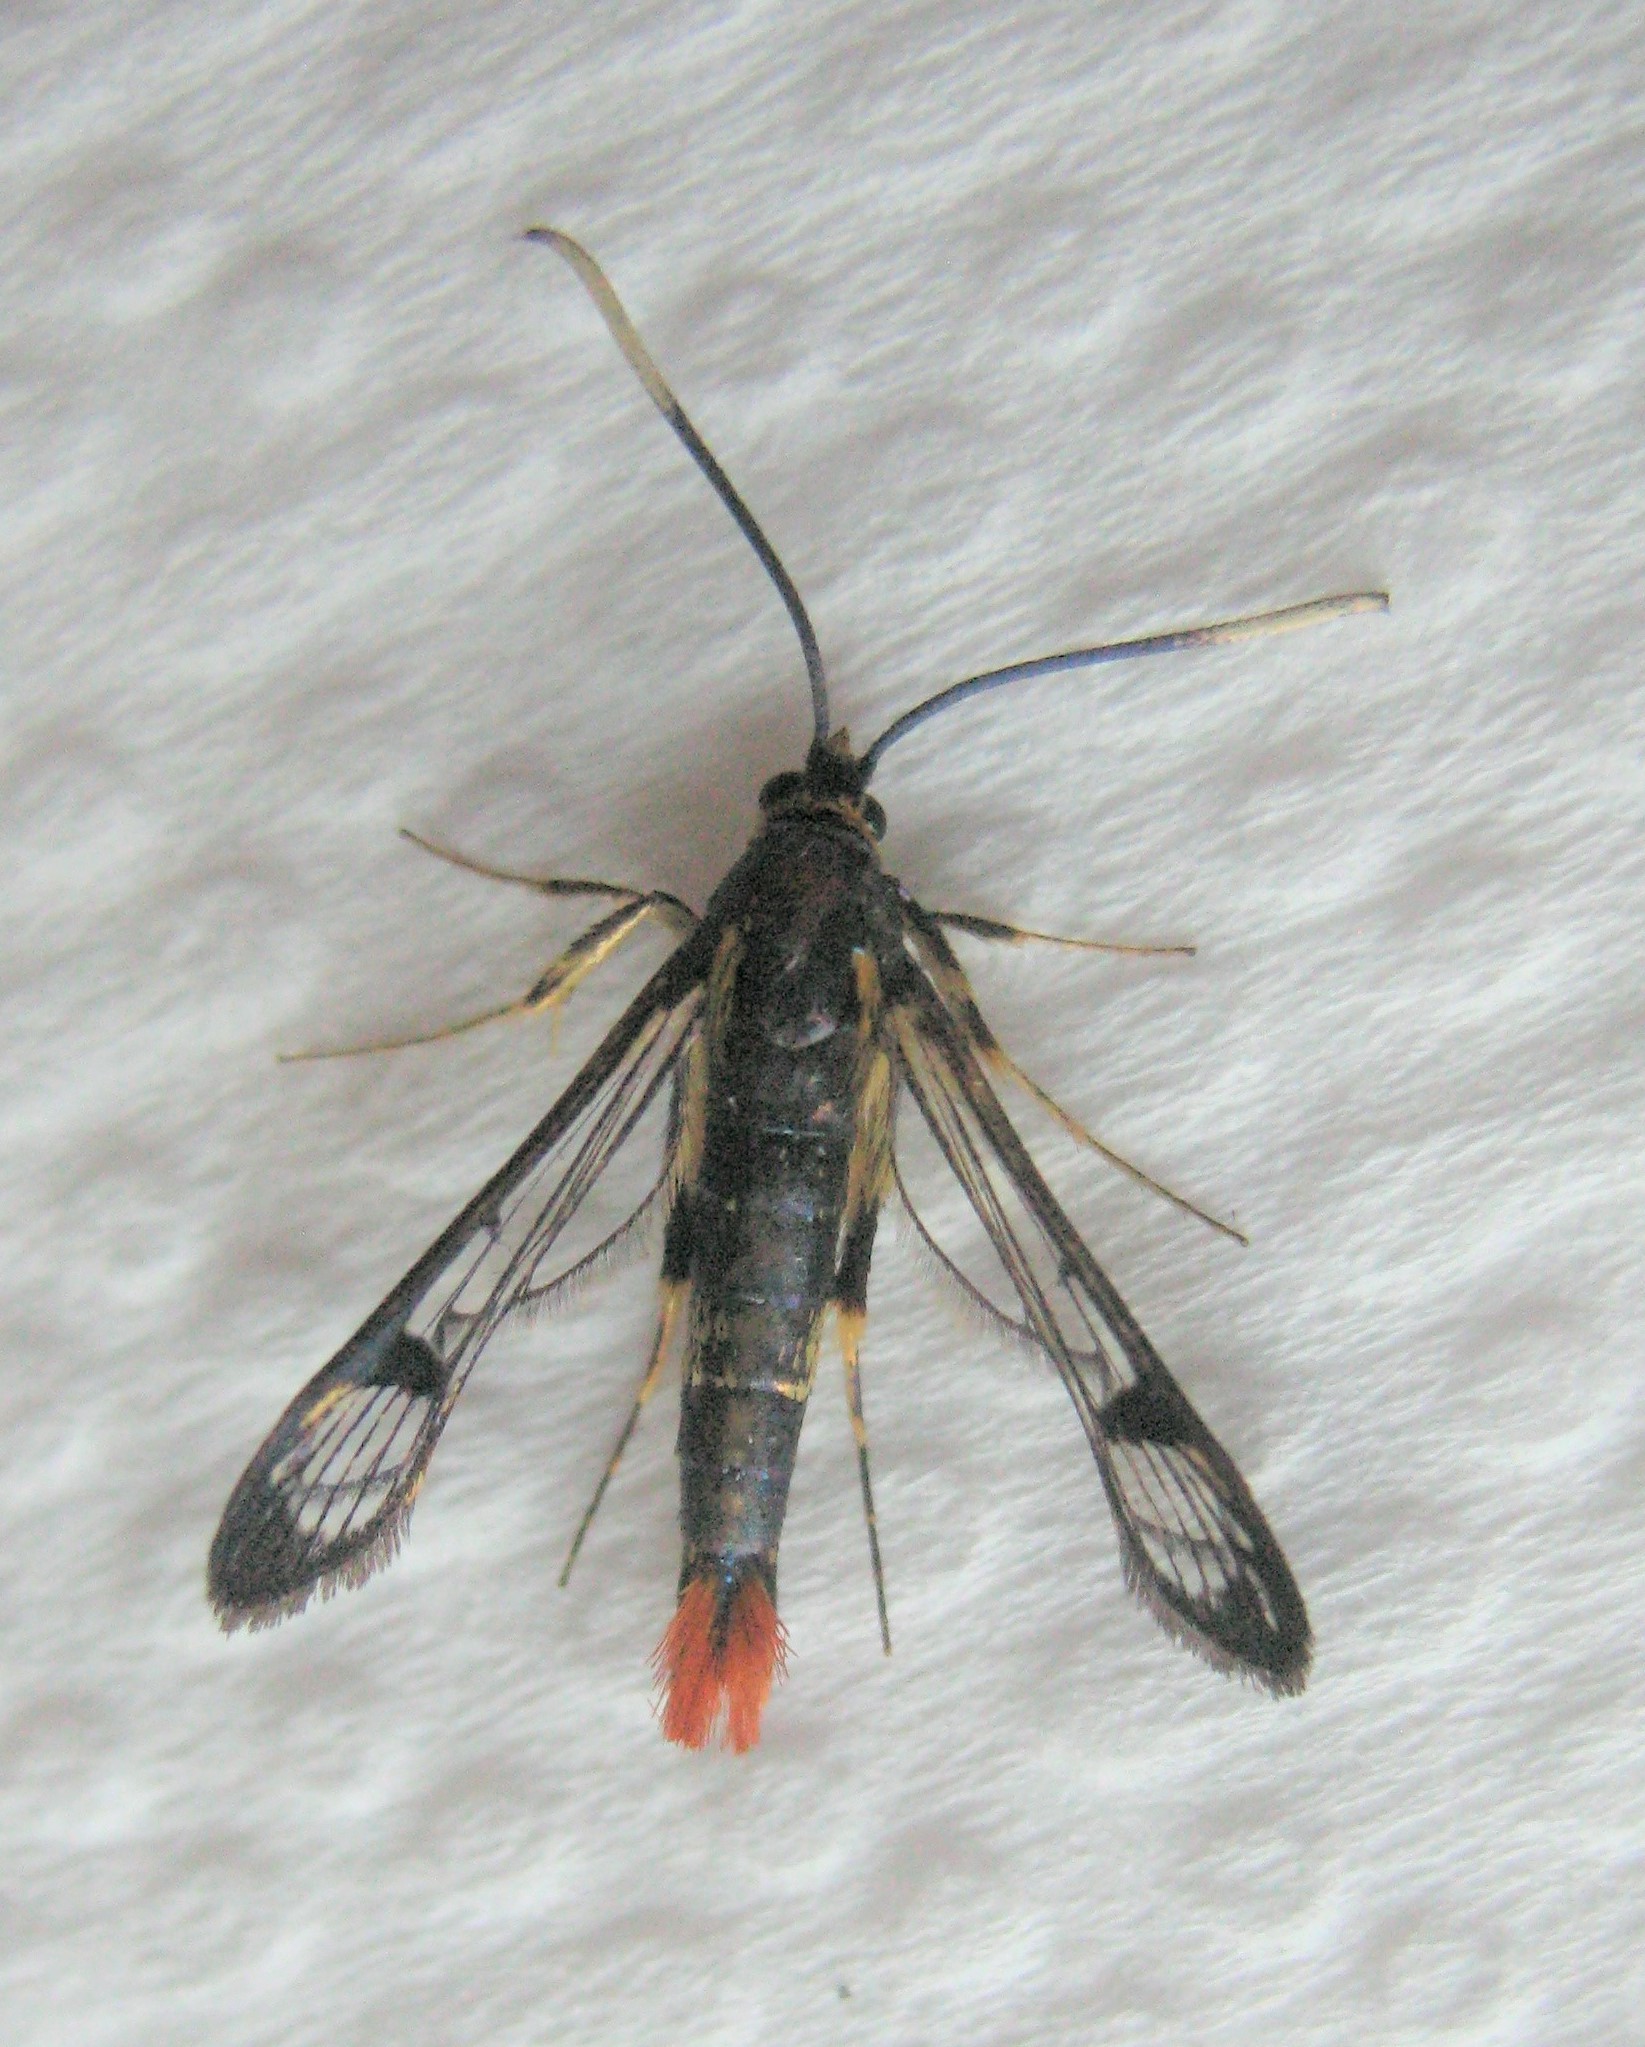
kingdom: Animalia
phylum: Arthropoda
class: Insecta
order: Lepidoptera
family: Sesiidae
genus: Synanthedon
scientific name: Synanthedon acerrubri
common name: Maple clearwing moth
